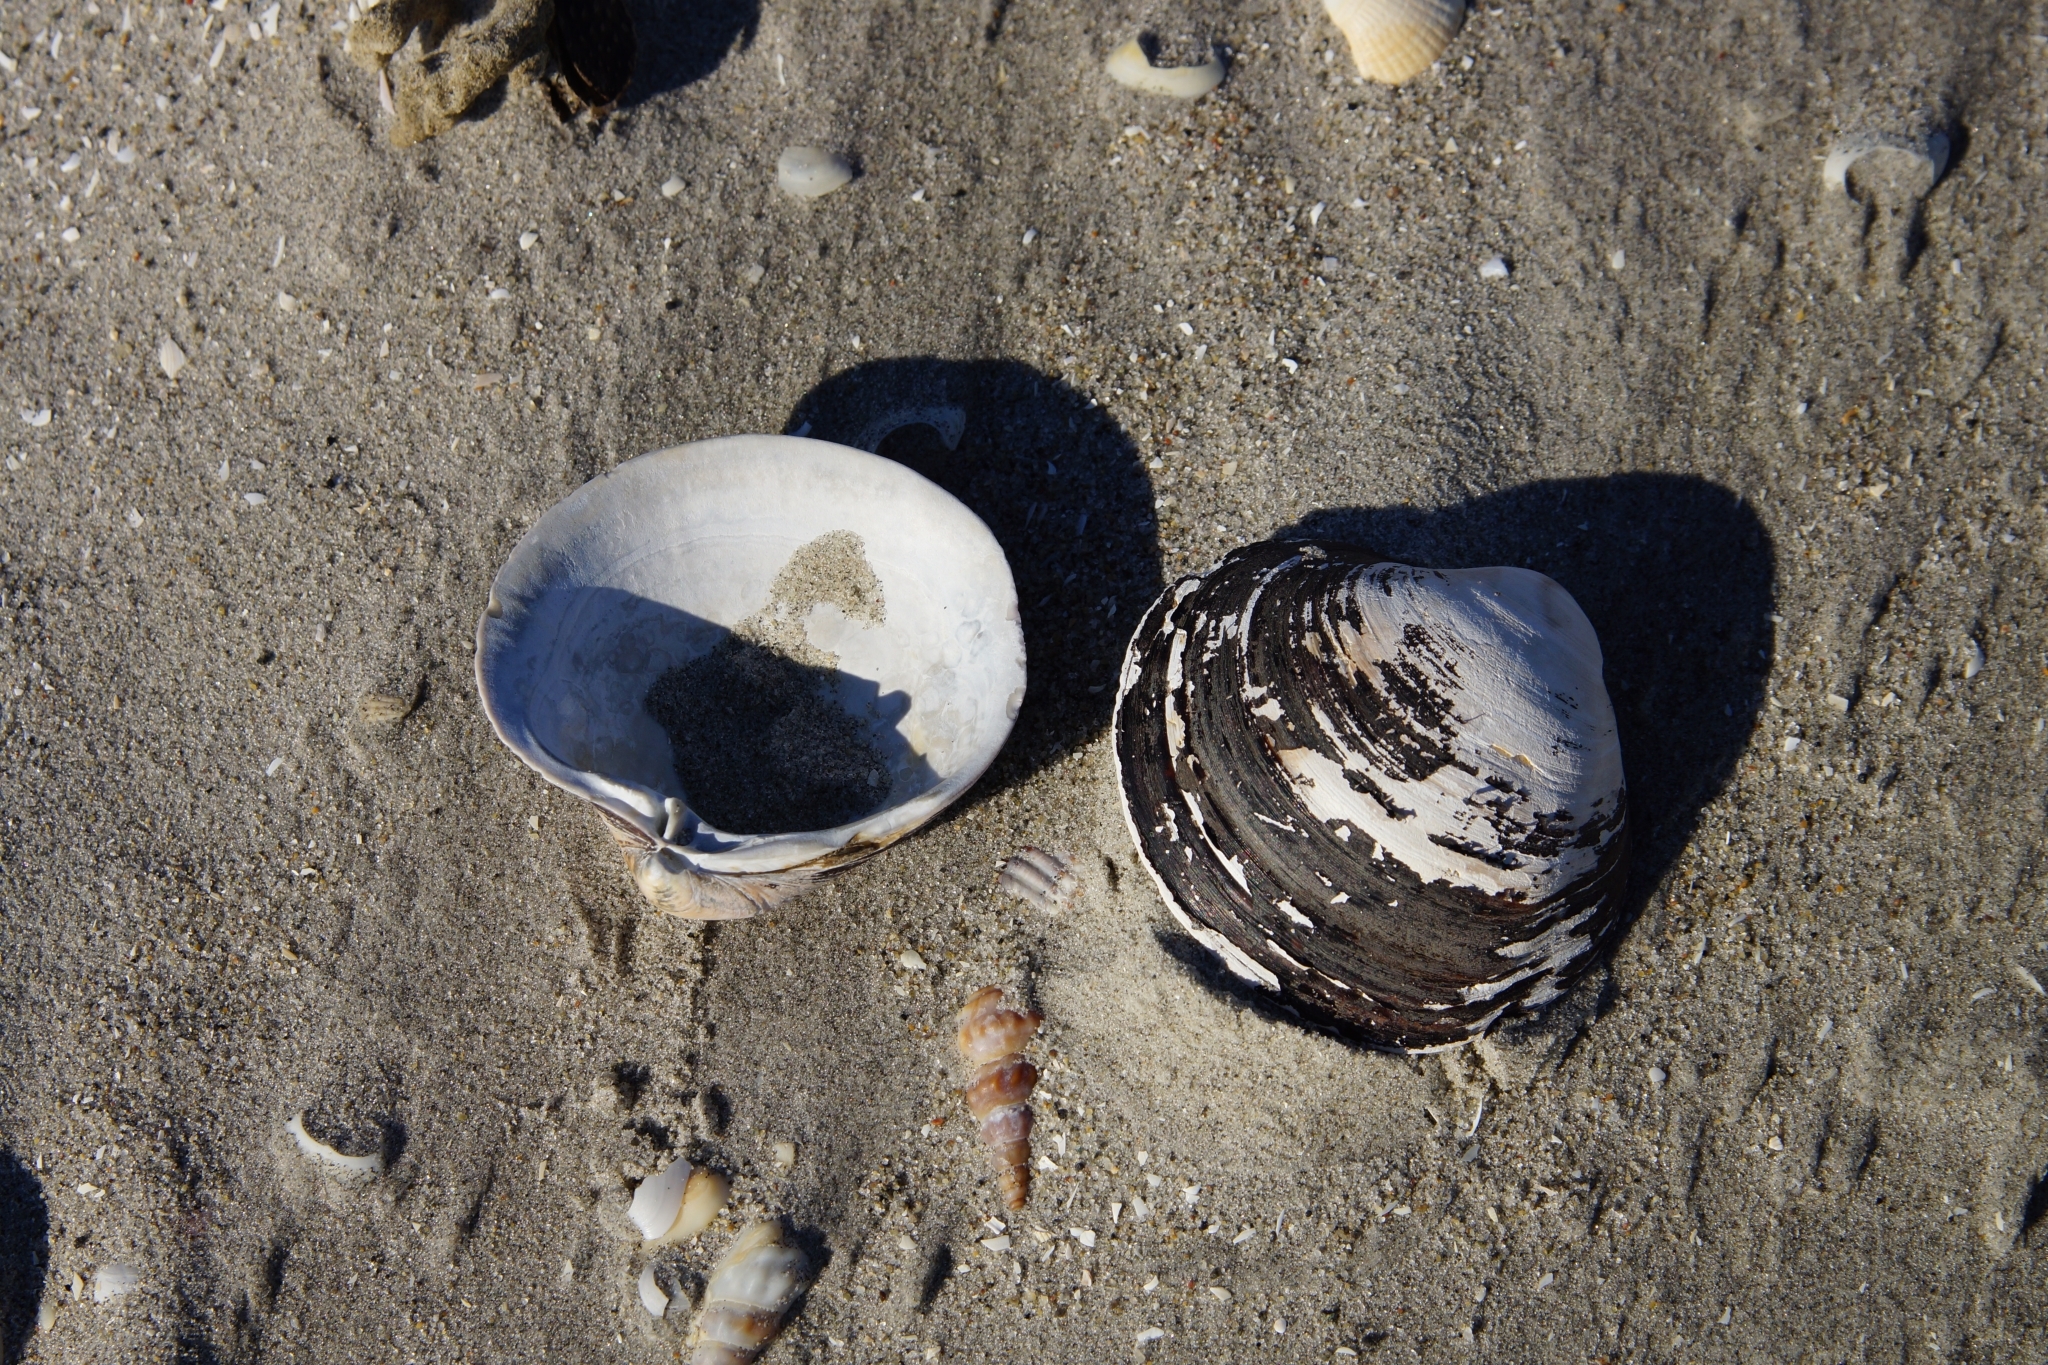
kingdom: Animalia
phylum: Mollusca
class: Bivalvia
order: Venerida
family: Arcticidae
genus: Arctica
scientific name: Arctica islandica
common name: Icelandic cyprine
